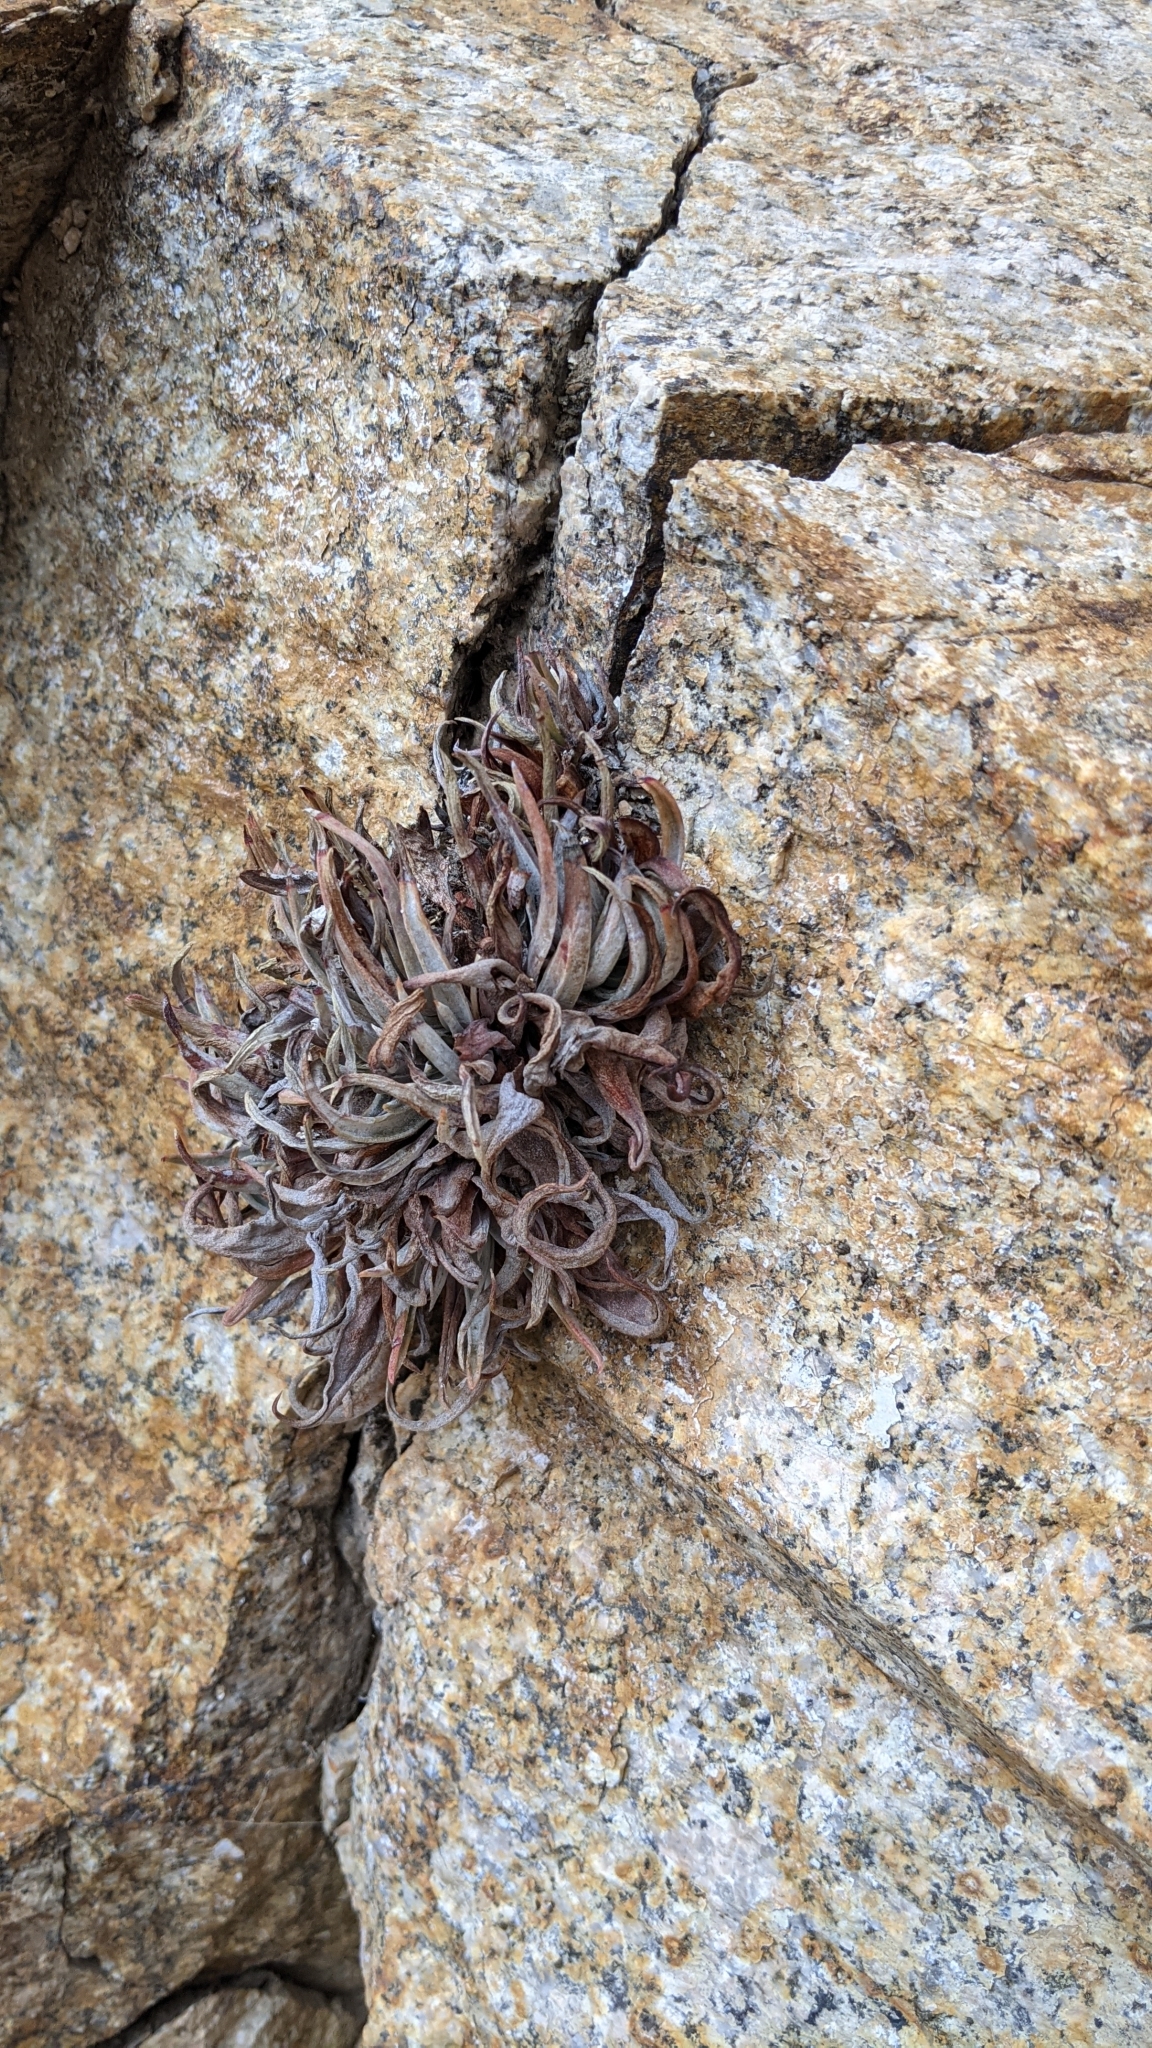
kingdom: Plantae
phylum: Tracheophyta
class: Magnoliopsida
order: Saxifragales
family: Crassulaceae
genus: Dudleya
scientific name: Dudleya saxosa
